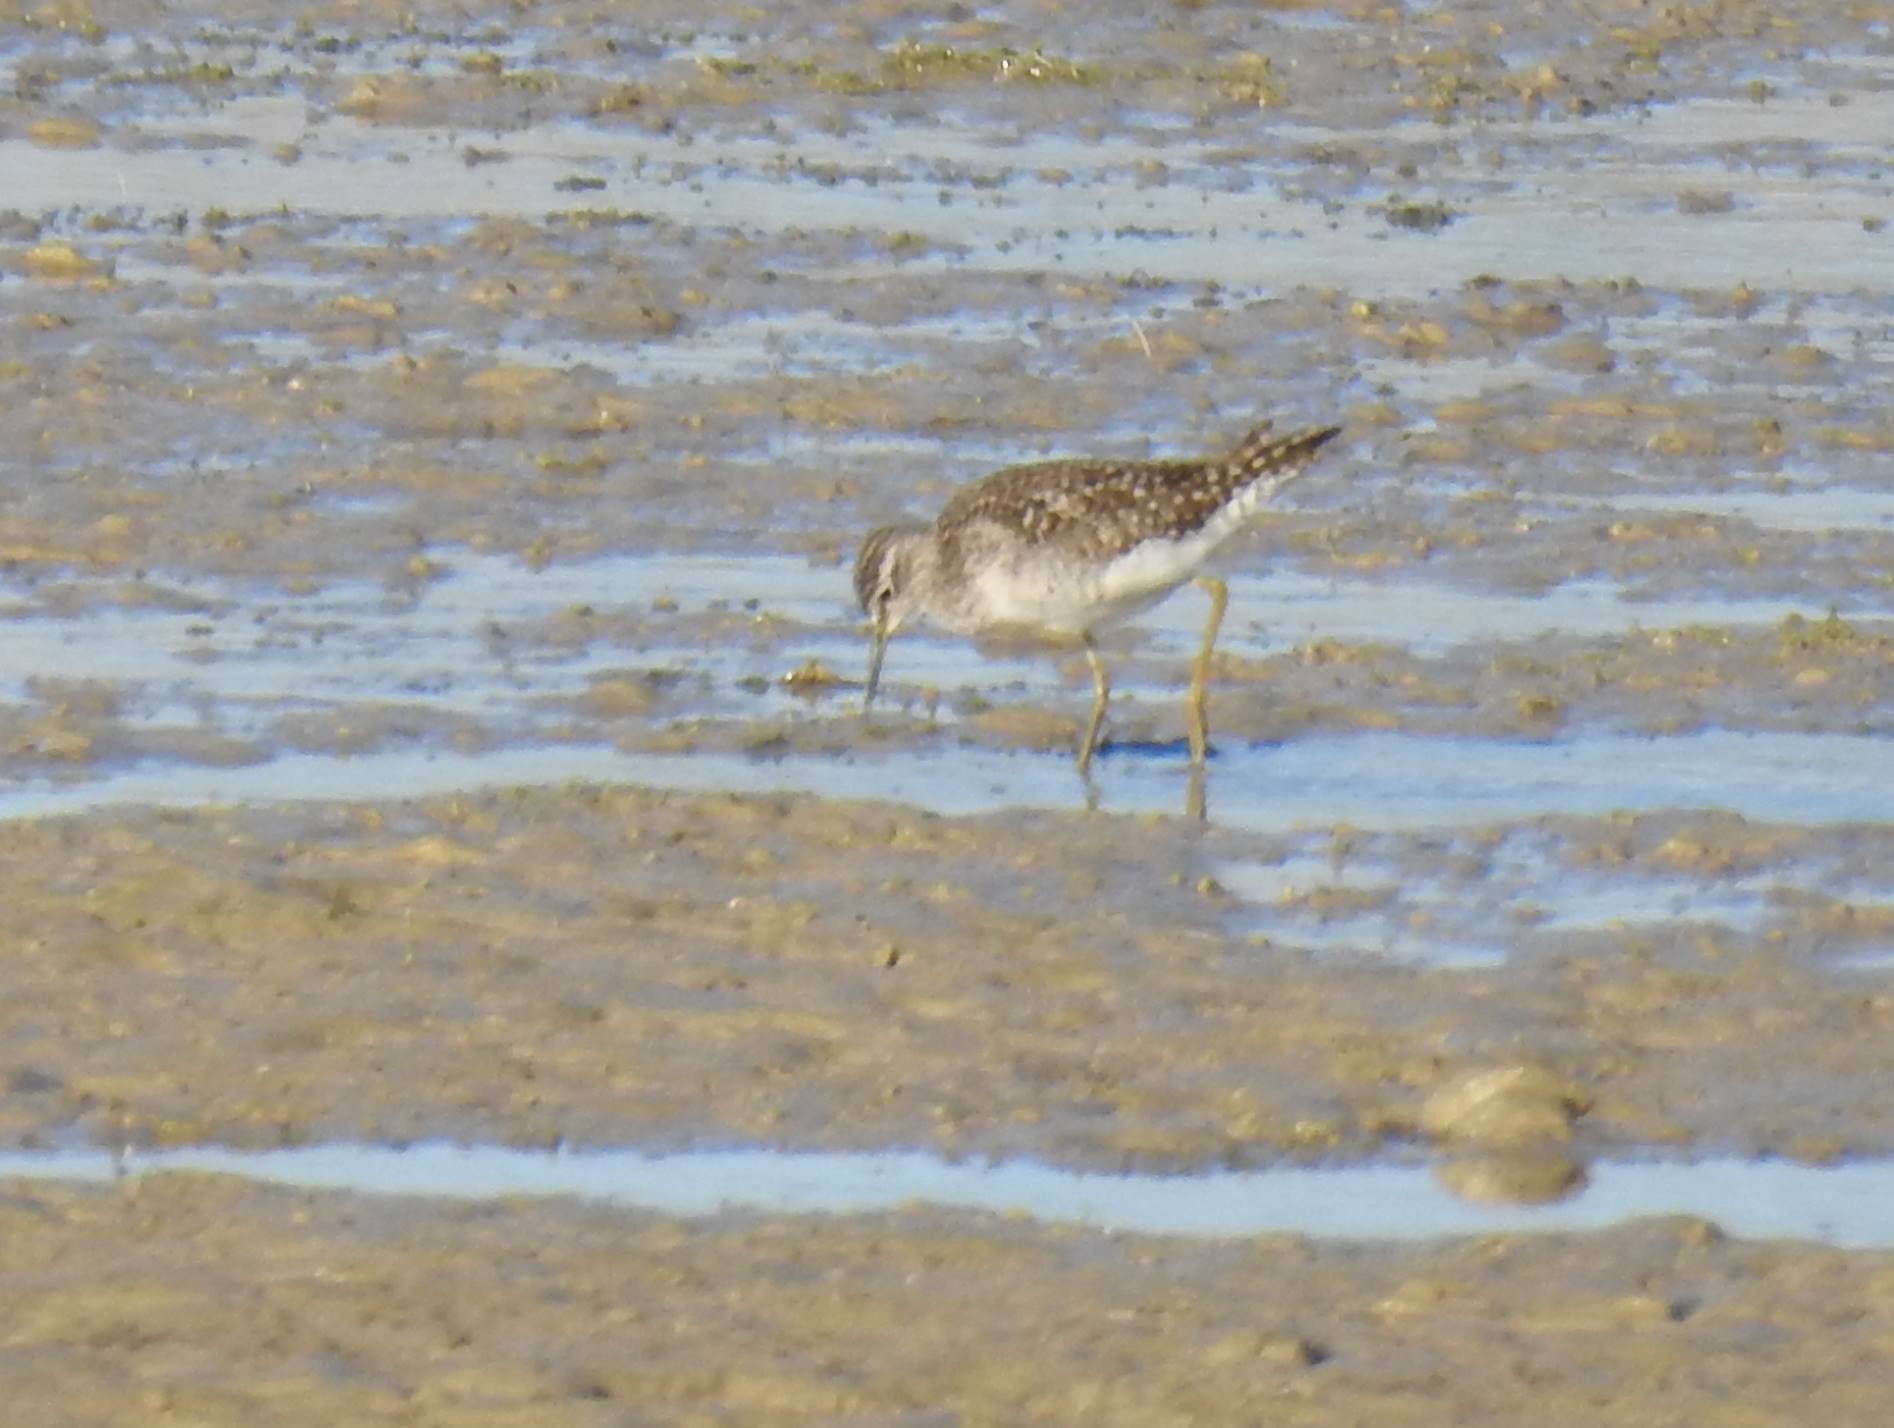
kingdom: Animalia
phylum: Chordata
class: Aves
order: Charadriiformes
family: Scolopacidae
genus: Tringa
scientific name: Tringa glareola
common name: Wood sandpiper
